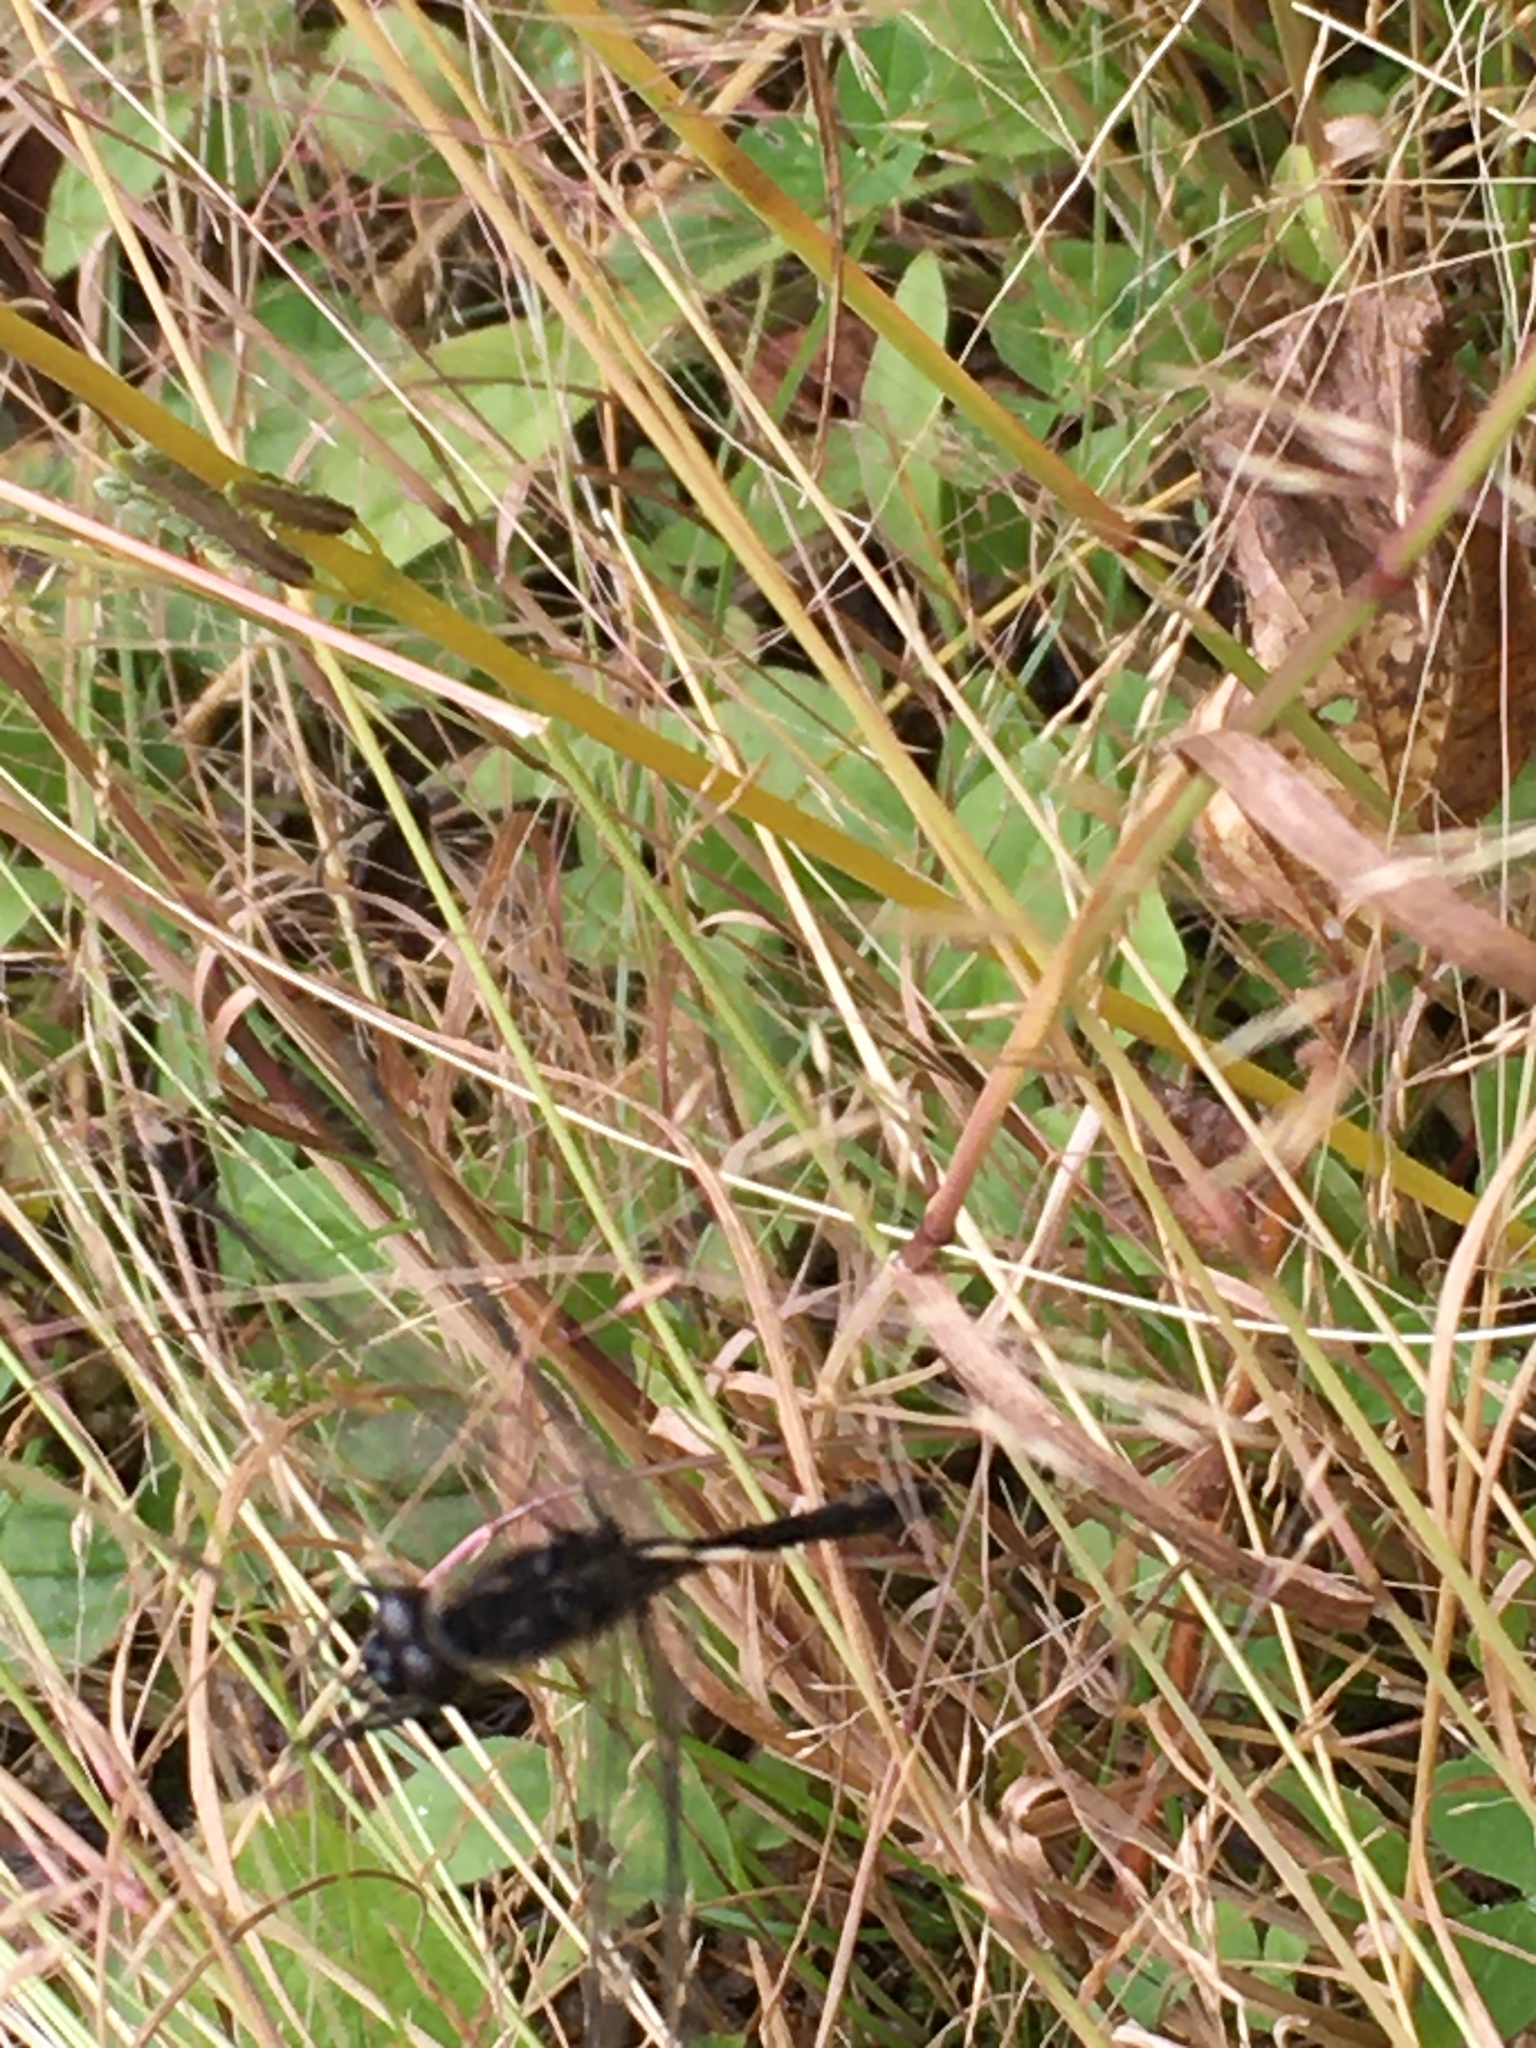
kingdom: Animalia
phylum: Arthropoda
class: Insecta
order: Odonata
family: Libellulidae
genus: Sympetrum
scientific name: Sympetrum danae
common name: Black darter
